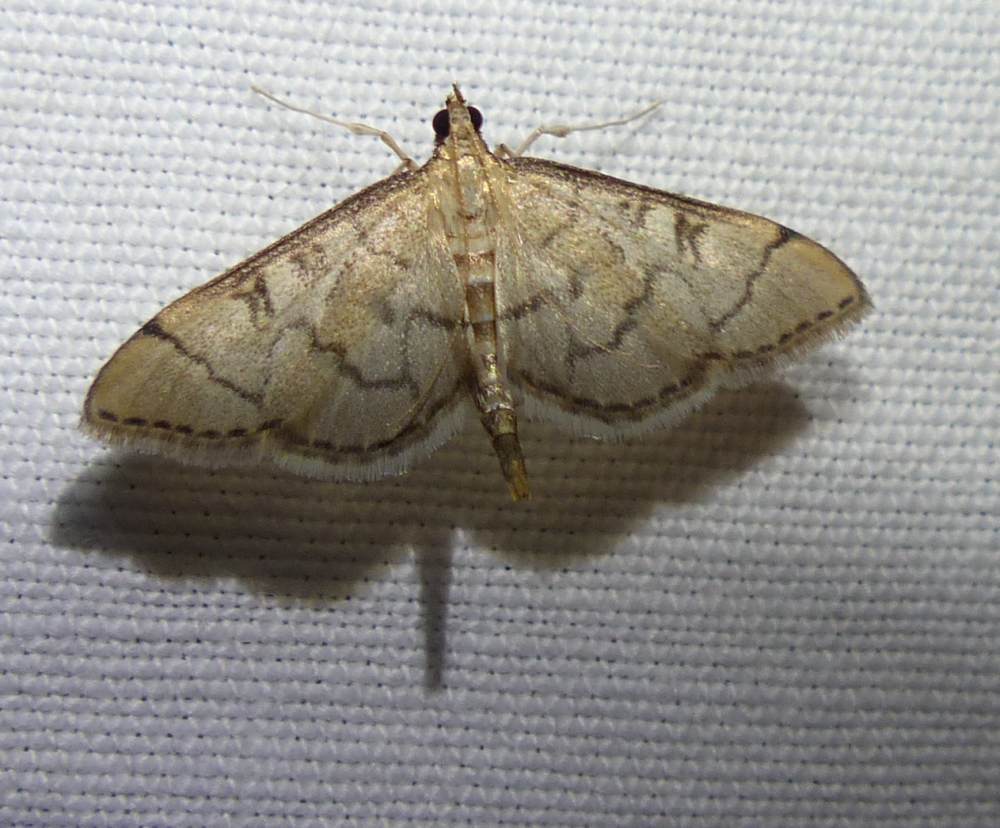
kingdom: Animalia
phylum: Arthropoda
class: Insecta
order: Lepidoptera
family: Crambidae
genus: Lamprosema
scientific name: Lamprosema Blepharomastix ranalis
